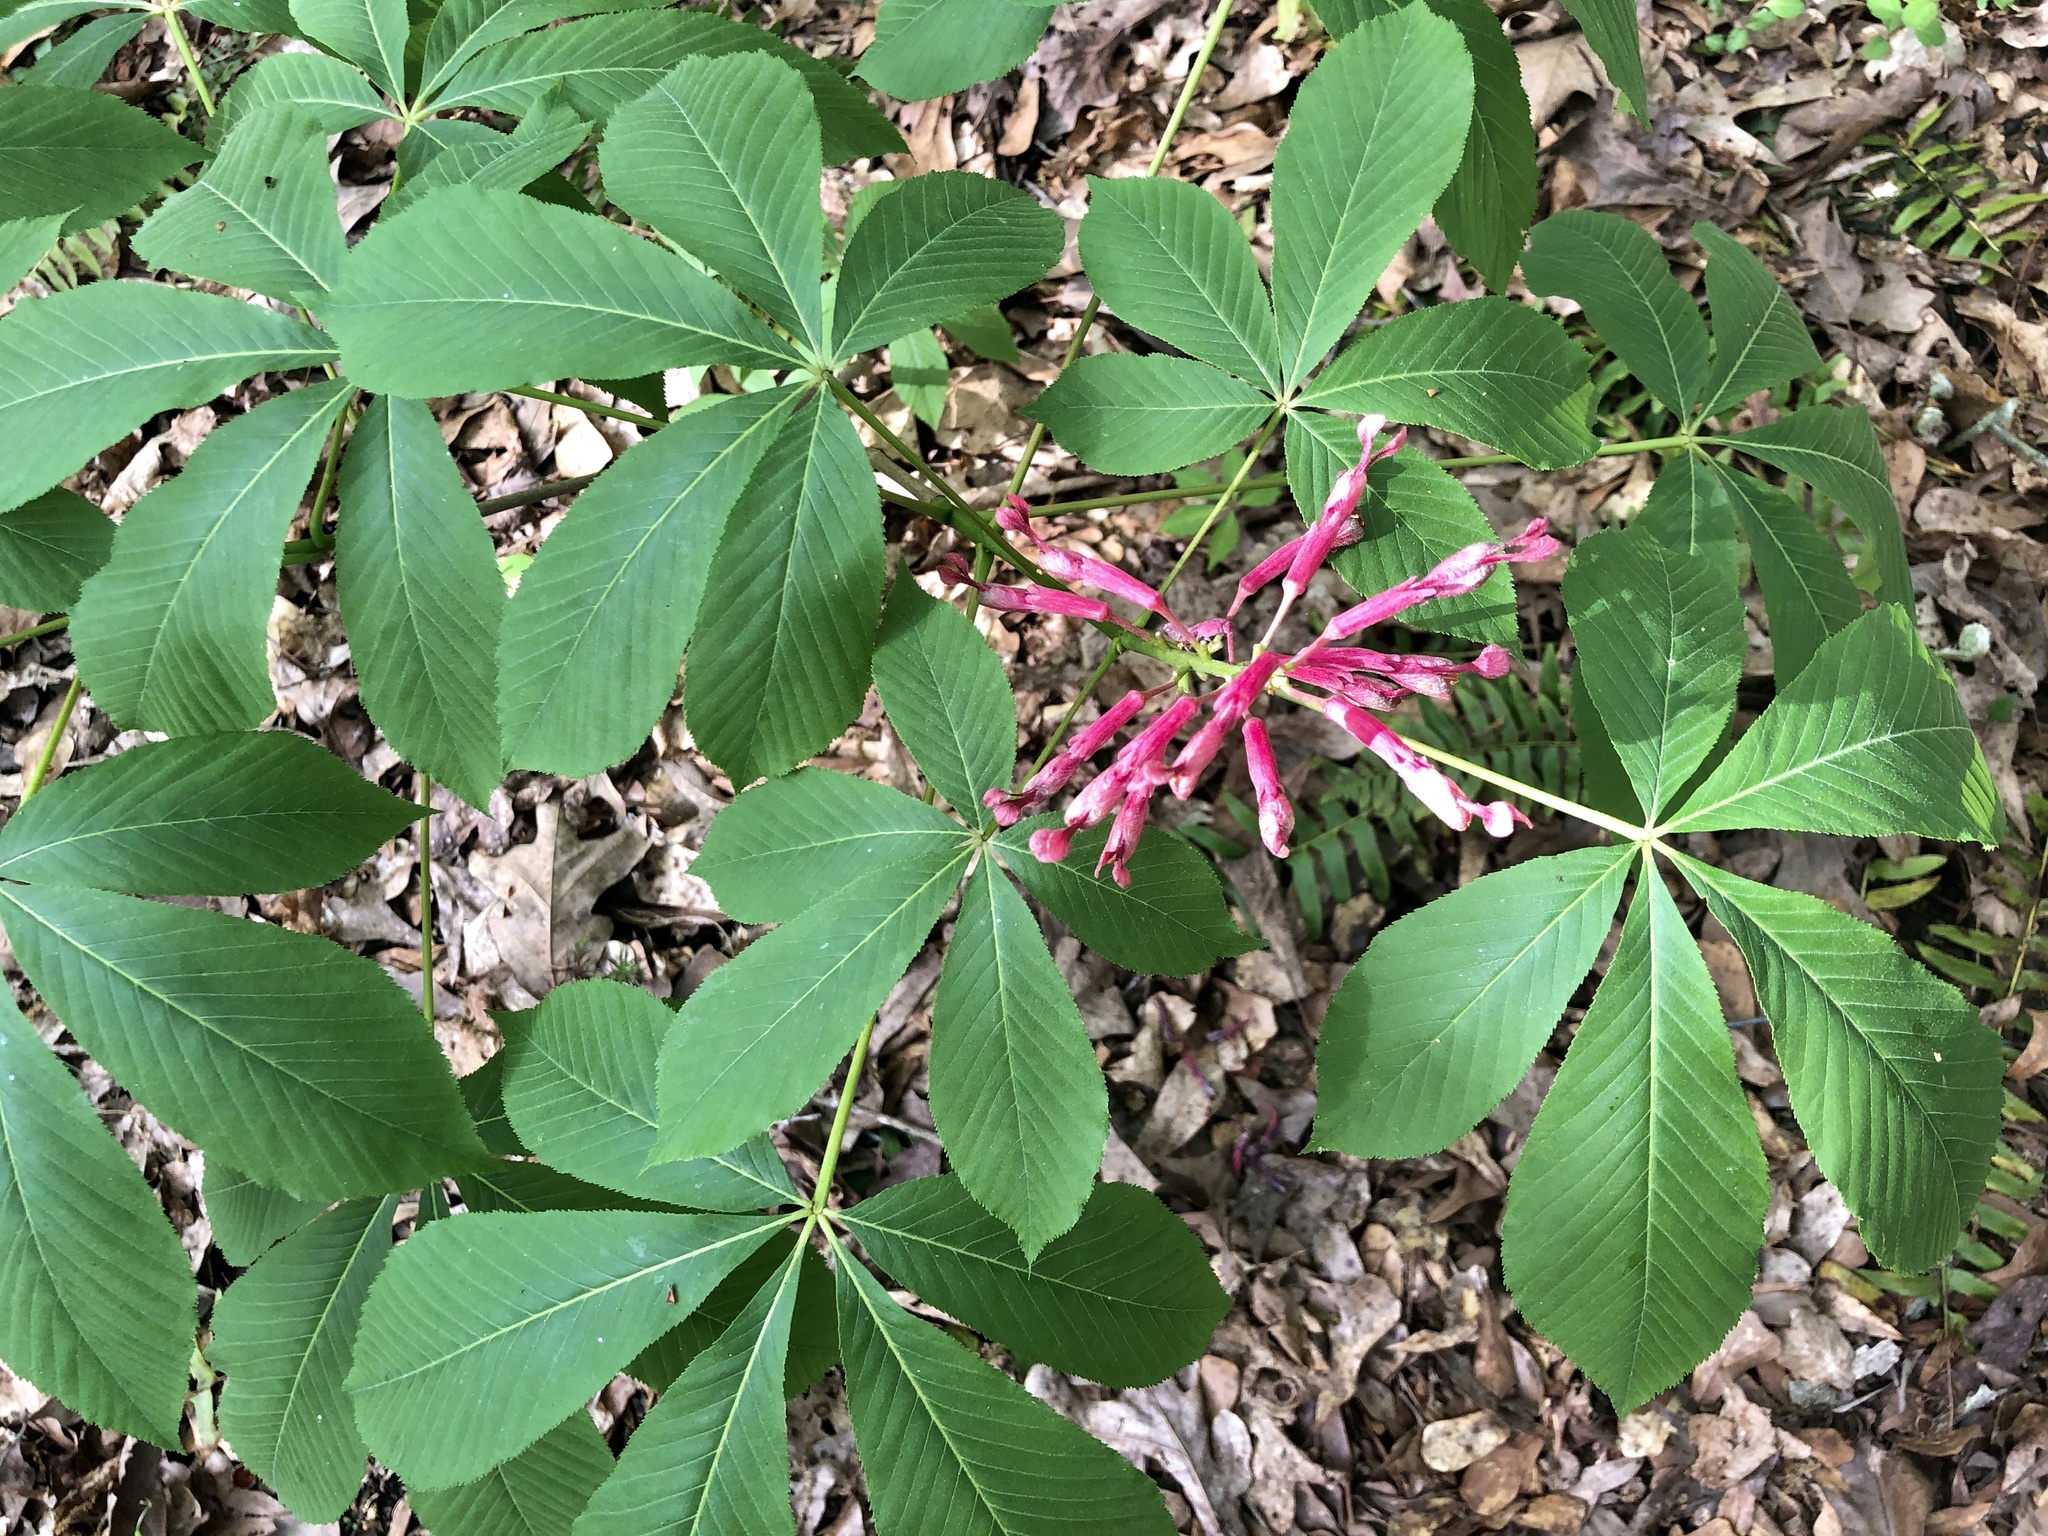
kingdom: Plantae
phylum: Tracheophyta
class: Magnoliopsida
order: Sapindales
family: Sapindaceae
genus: Aesculus
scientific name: Aesculus pavia
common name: Red buckeye
